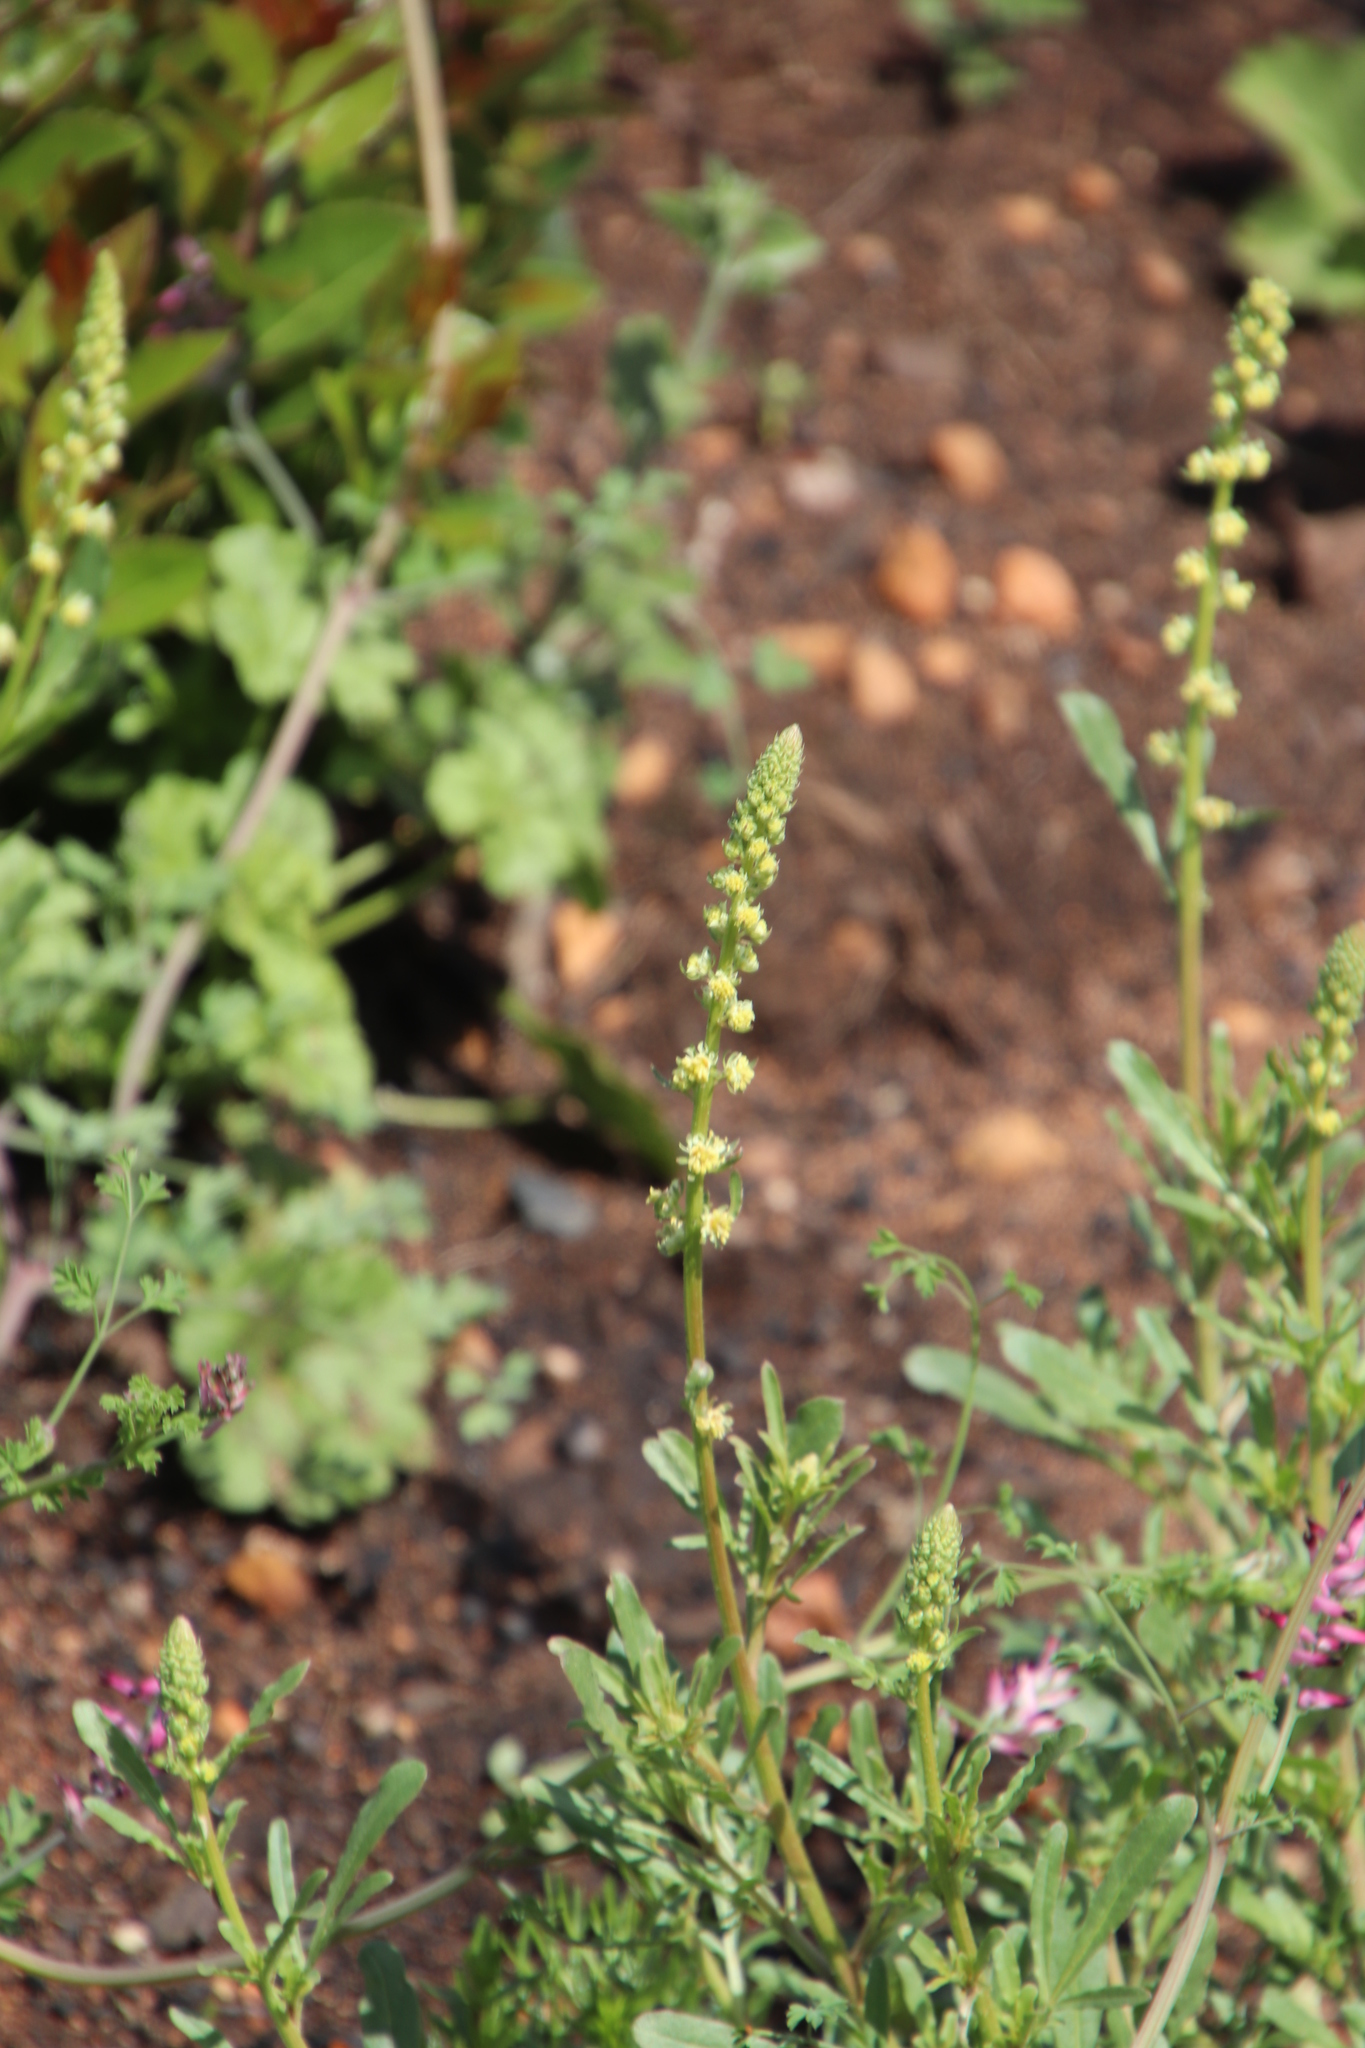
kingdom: Plantae
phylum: Tracheophyta
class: Magnoliopsida
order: Brassicales
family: Resedaceae
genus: Reseda
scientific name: Reseda lutea
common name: Wild mignonette
